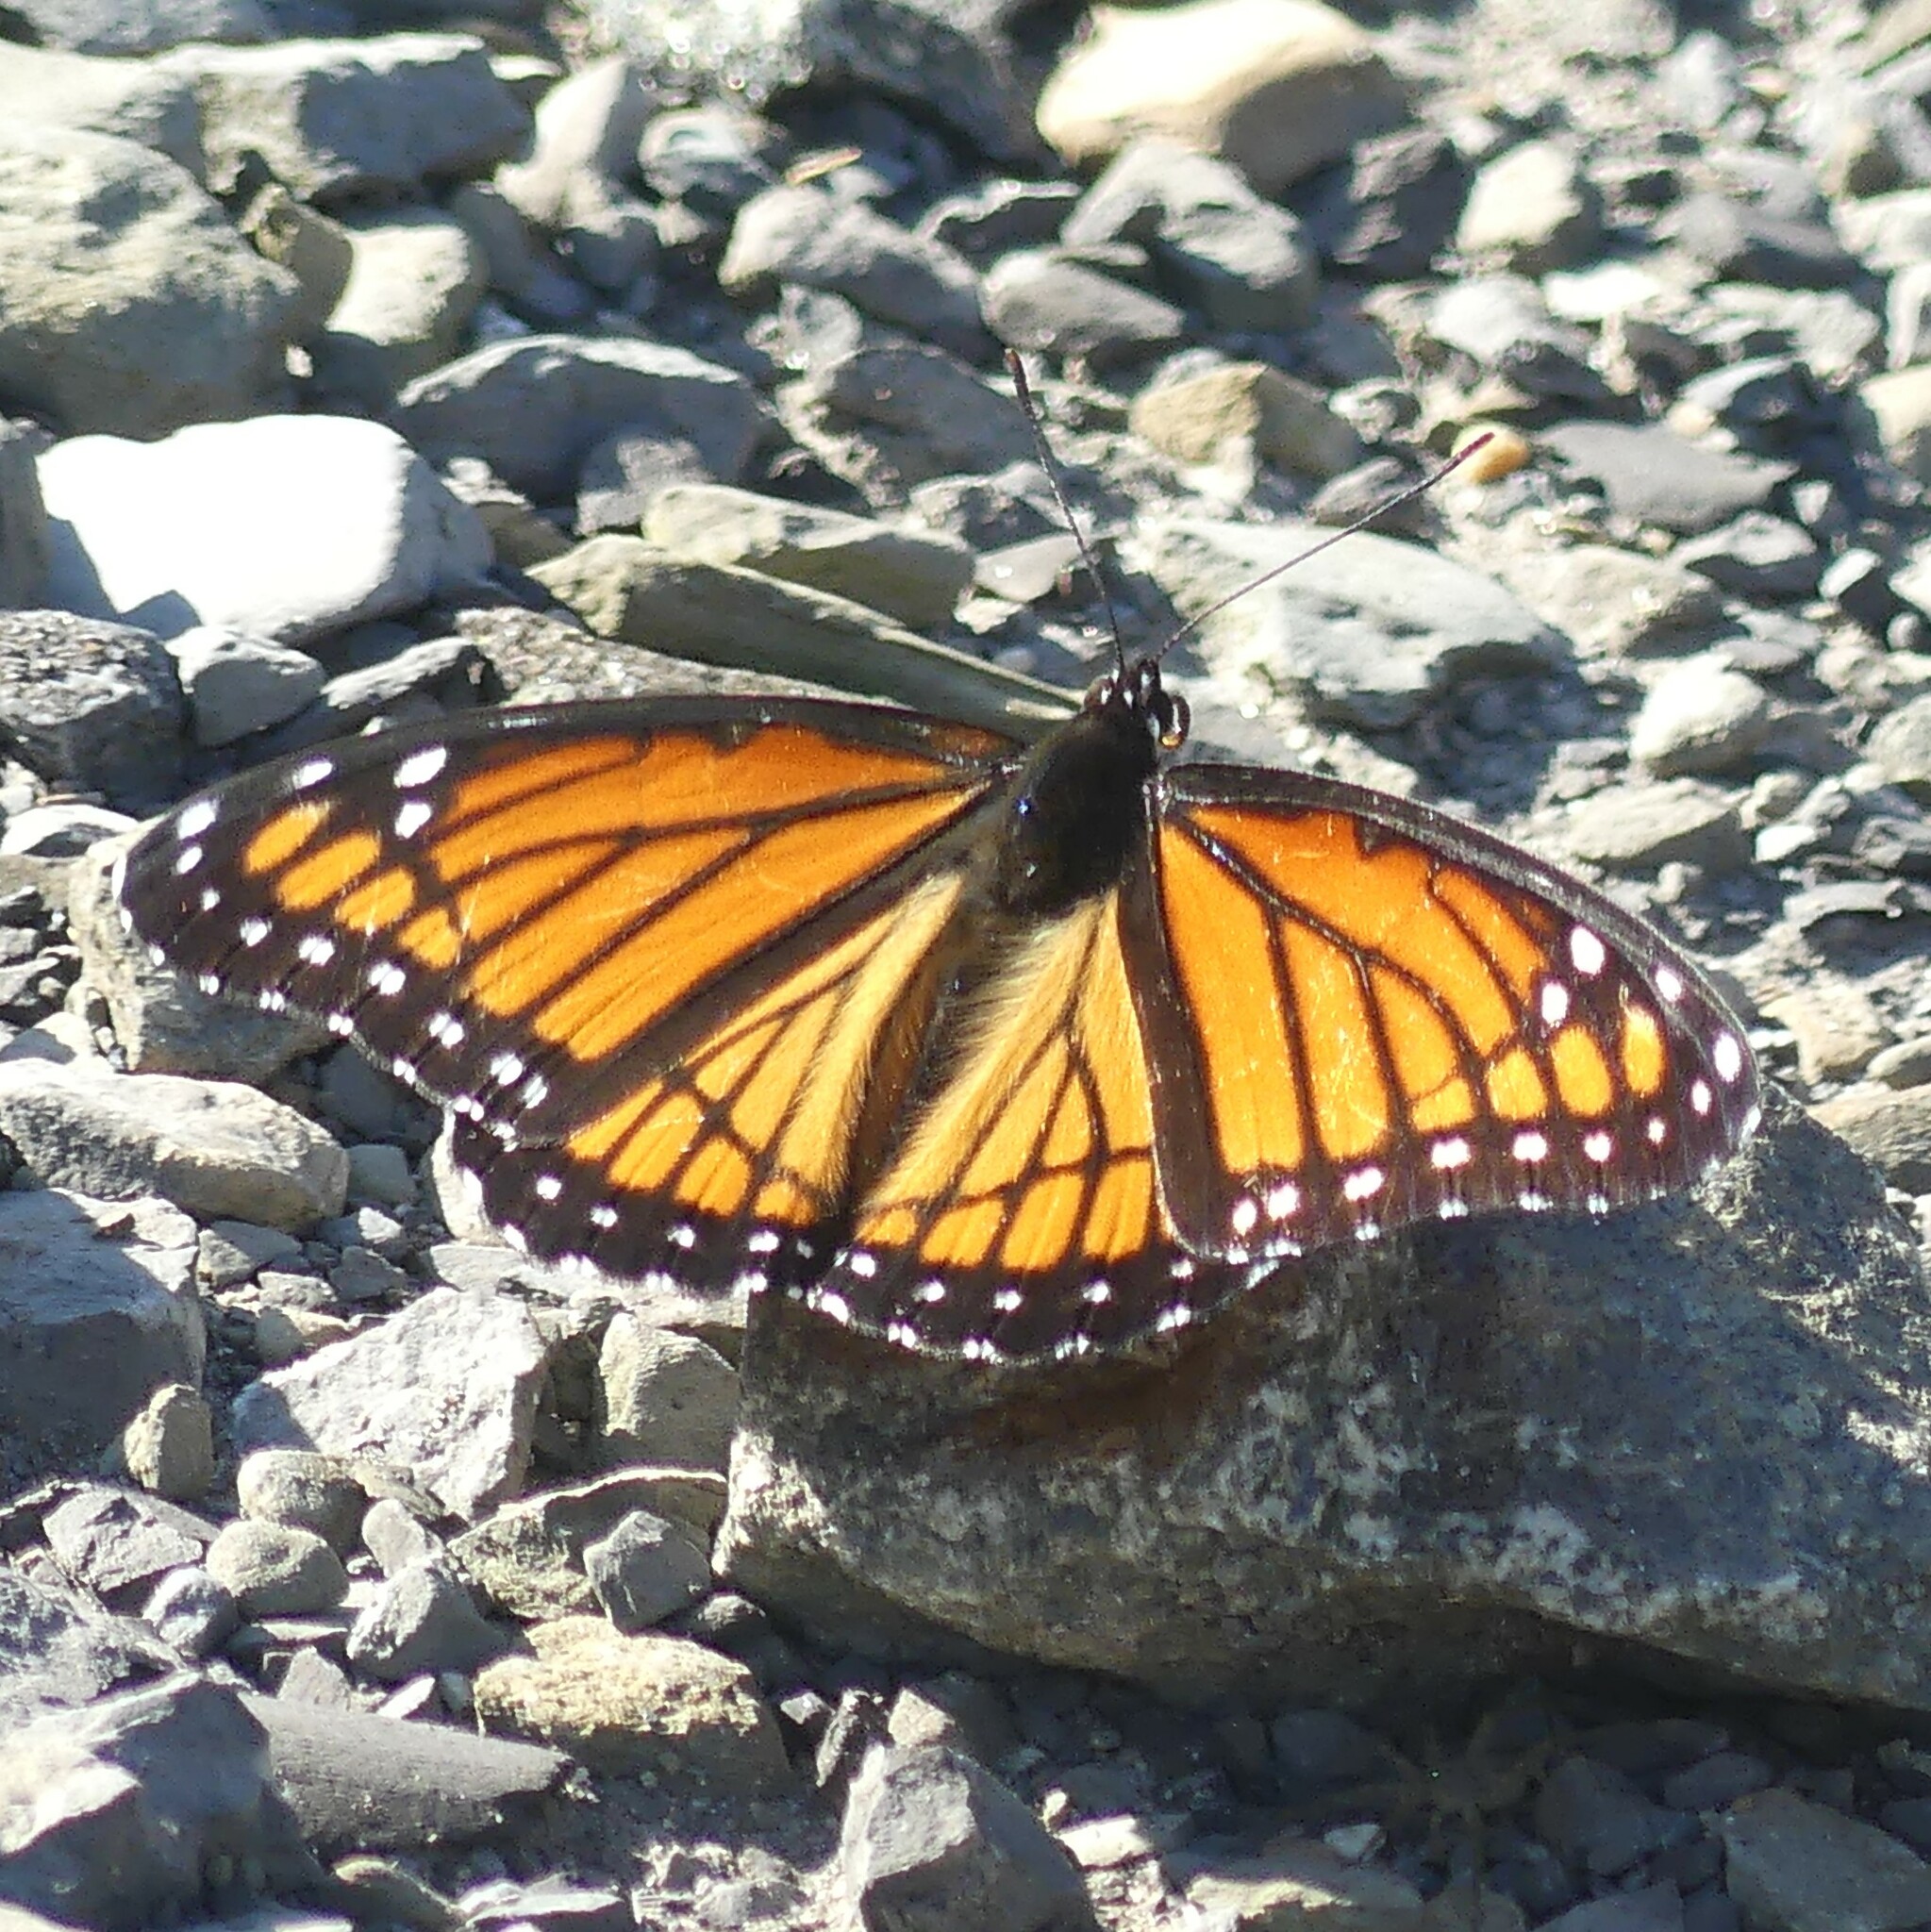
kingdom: Animalia
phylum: Arthropoda
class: Insecta
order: Lepidoptera
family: Nymphalidae
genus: Limenitis
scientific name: Limenitis archippus
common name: Viceroy
